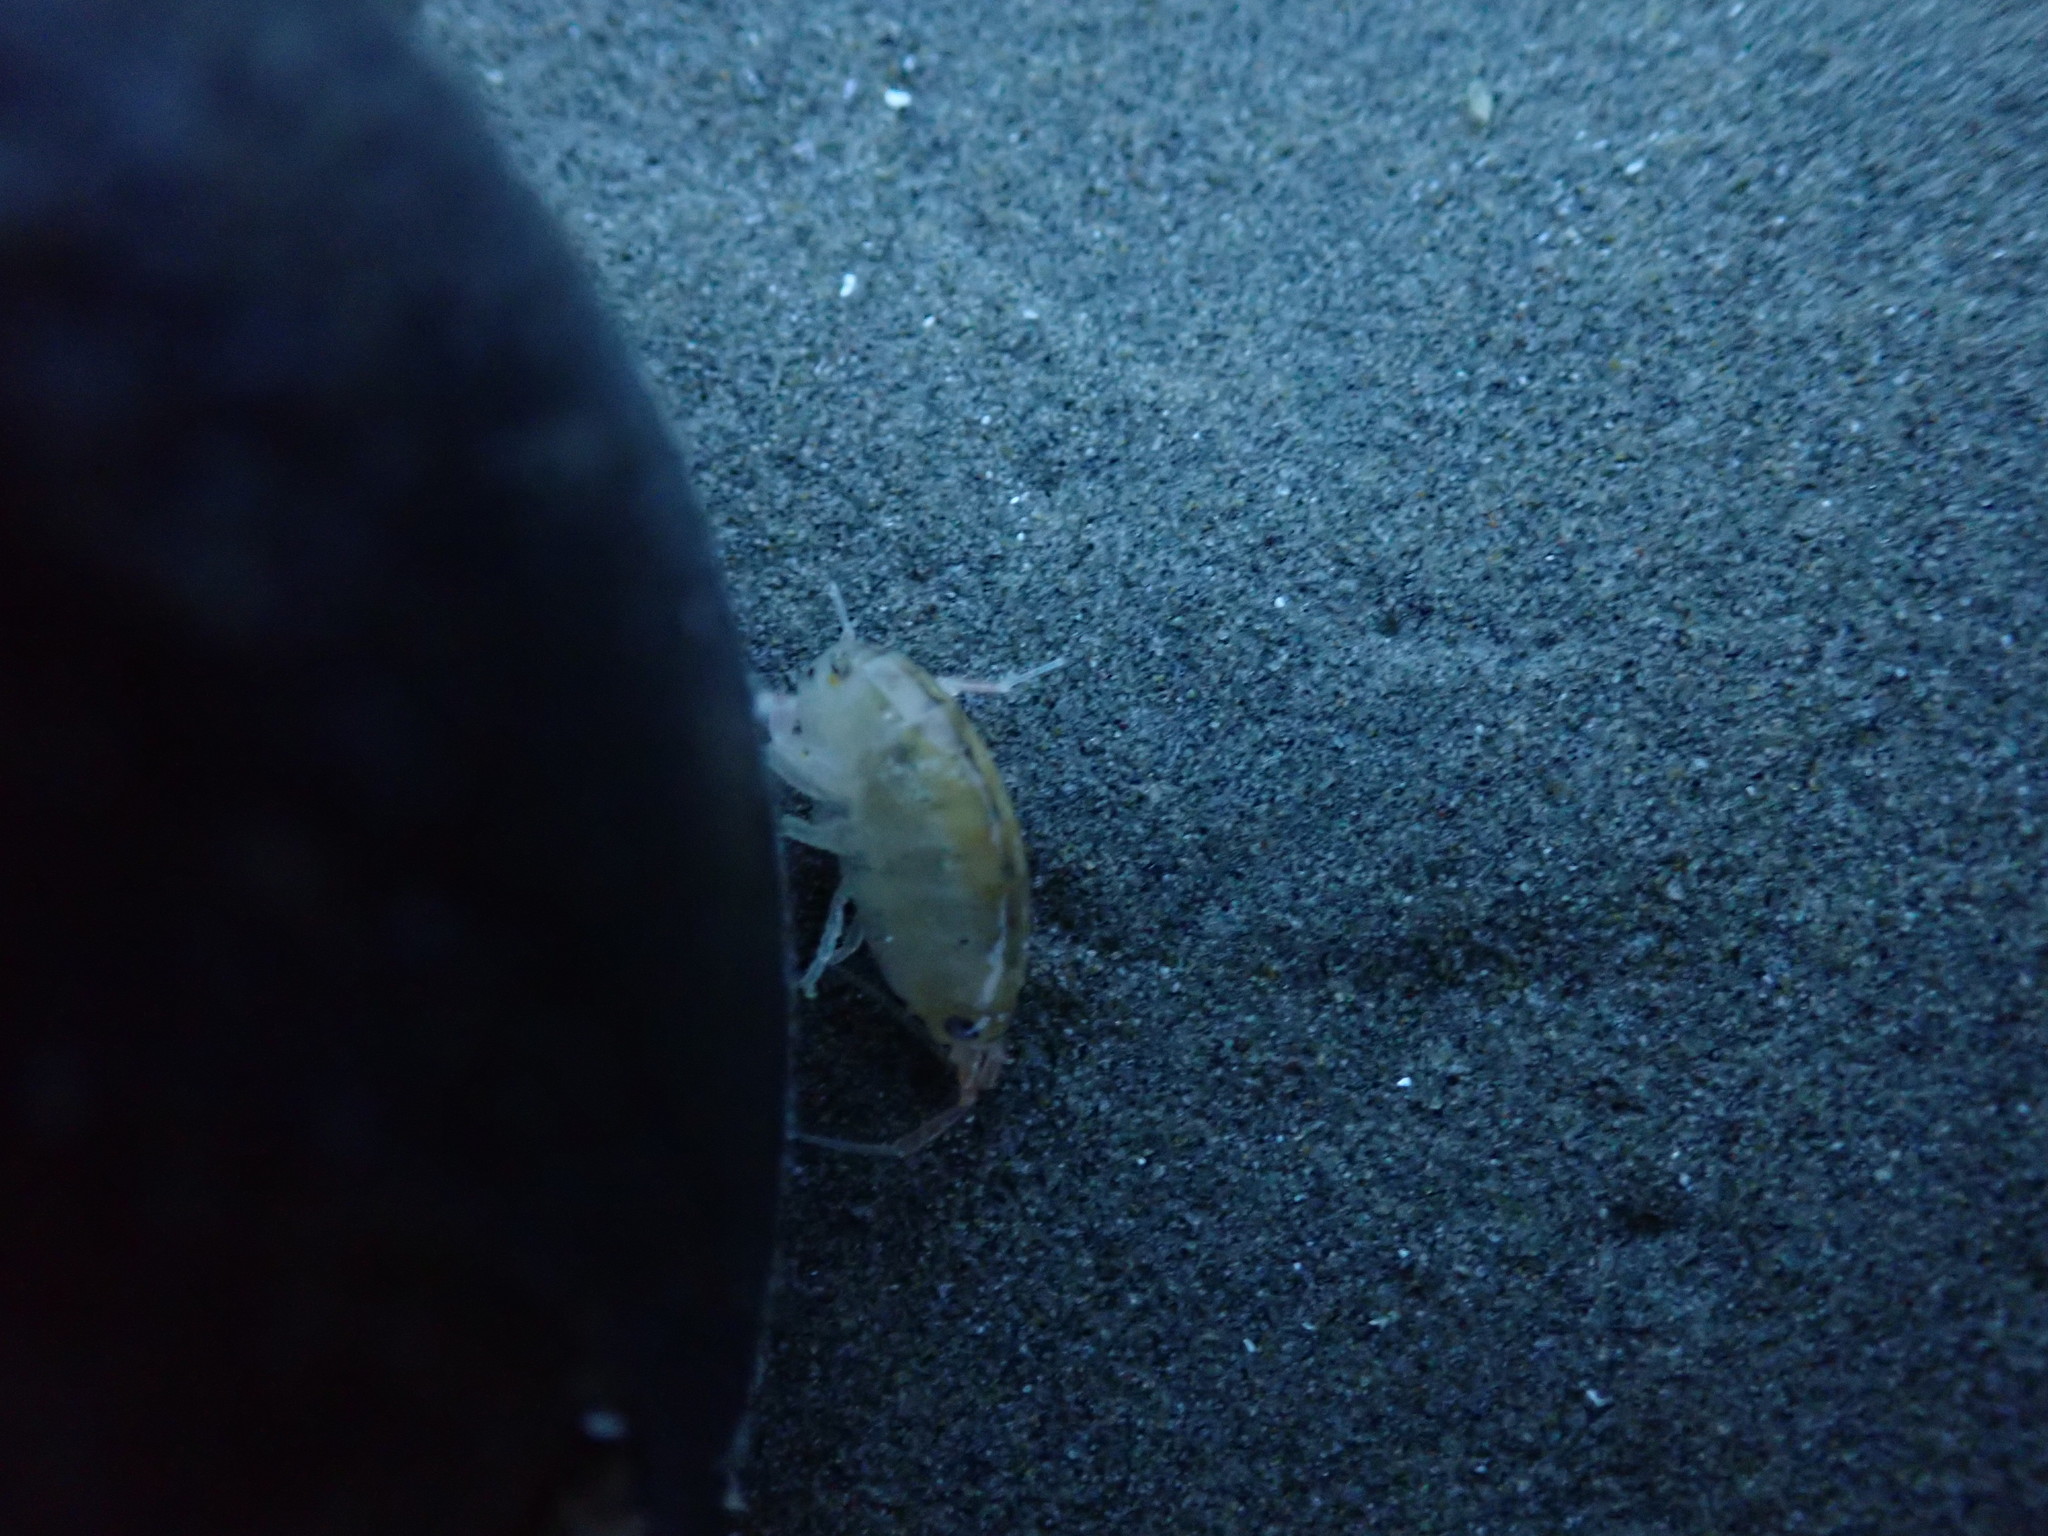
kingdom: Animalia
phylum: Arthropoda
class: Malacostraca
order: Amphipoda
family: Talitridae
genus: Megalorchestia
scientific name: Megalorchestia californiana
